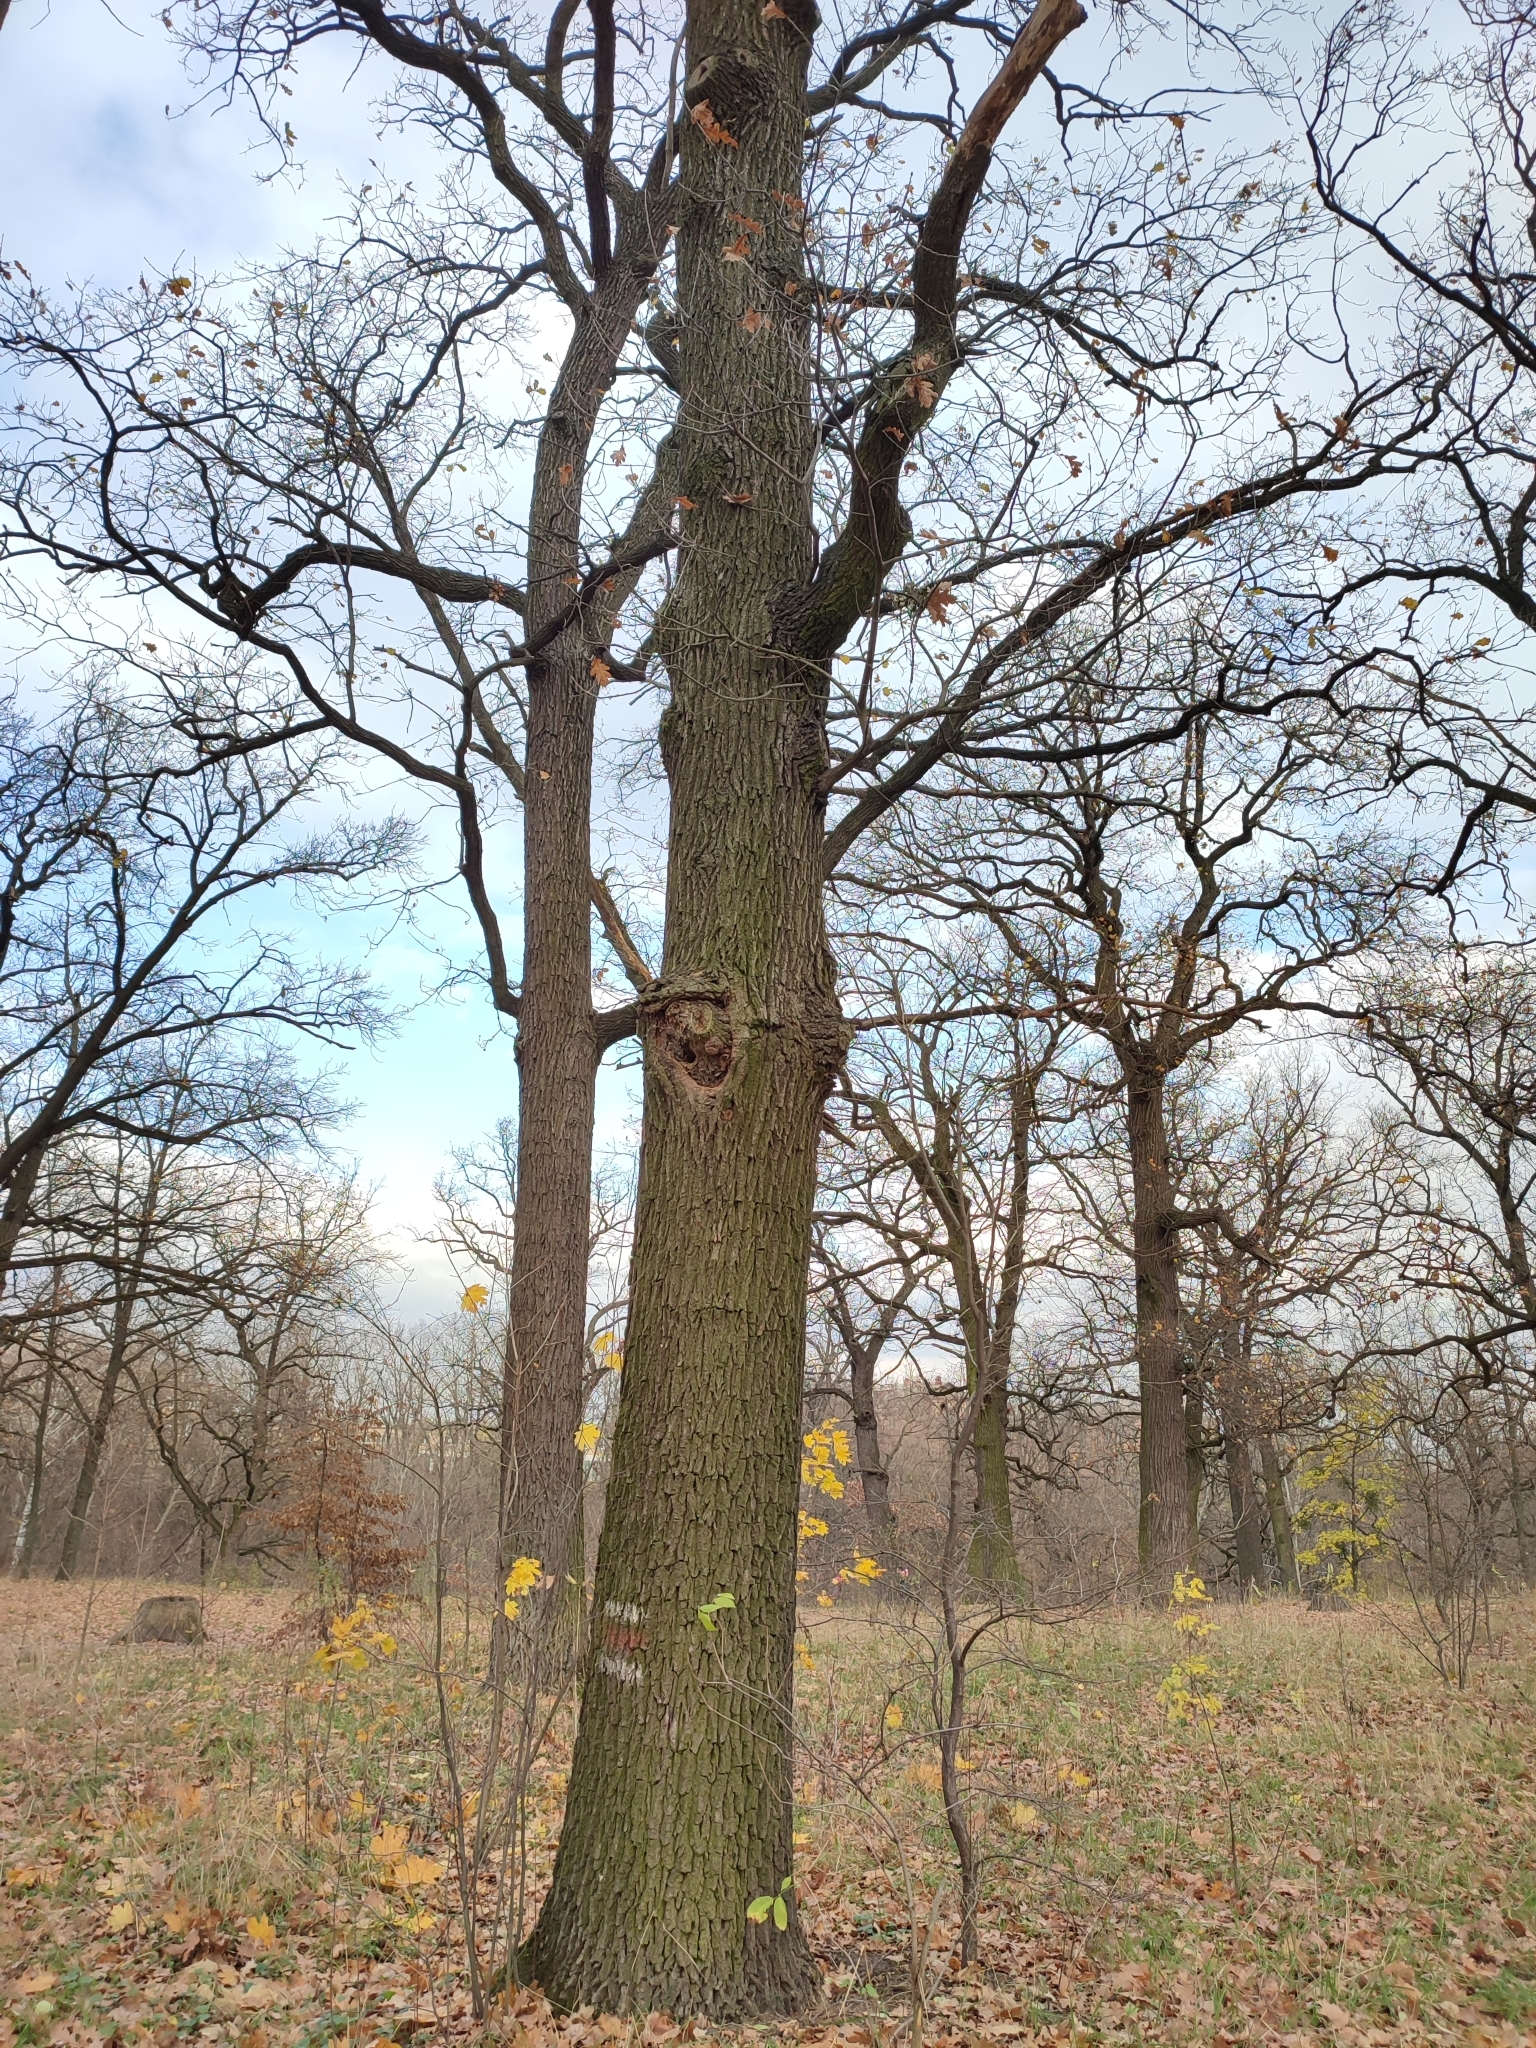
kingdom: Plantae
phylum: Tracheophyta
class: Magnoliopsida
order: Fagales
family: Fagaceae
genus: Quercus
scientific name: Quercus robur
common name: Pedunculate oak
